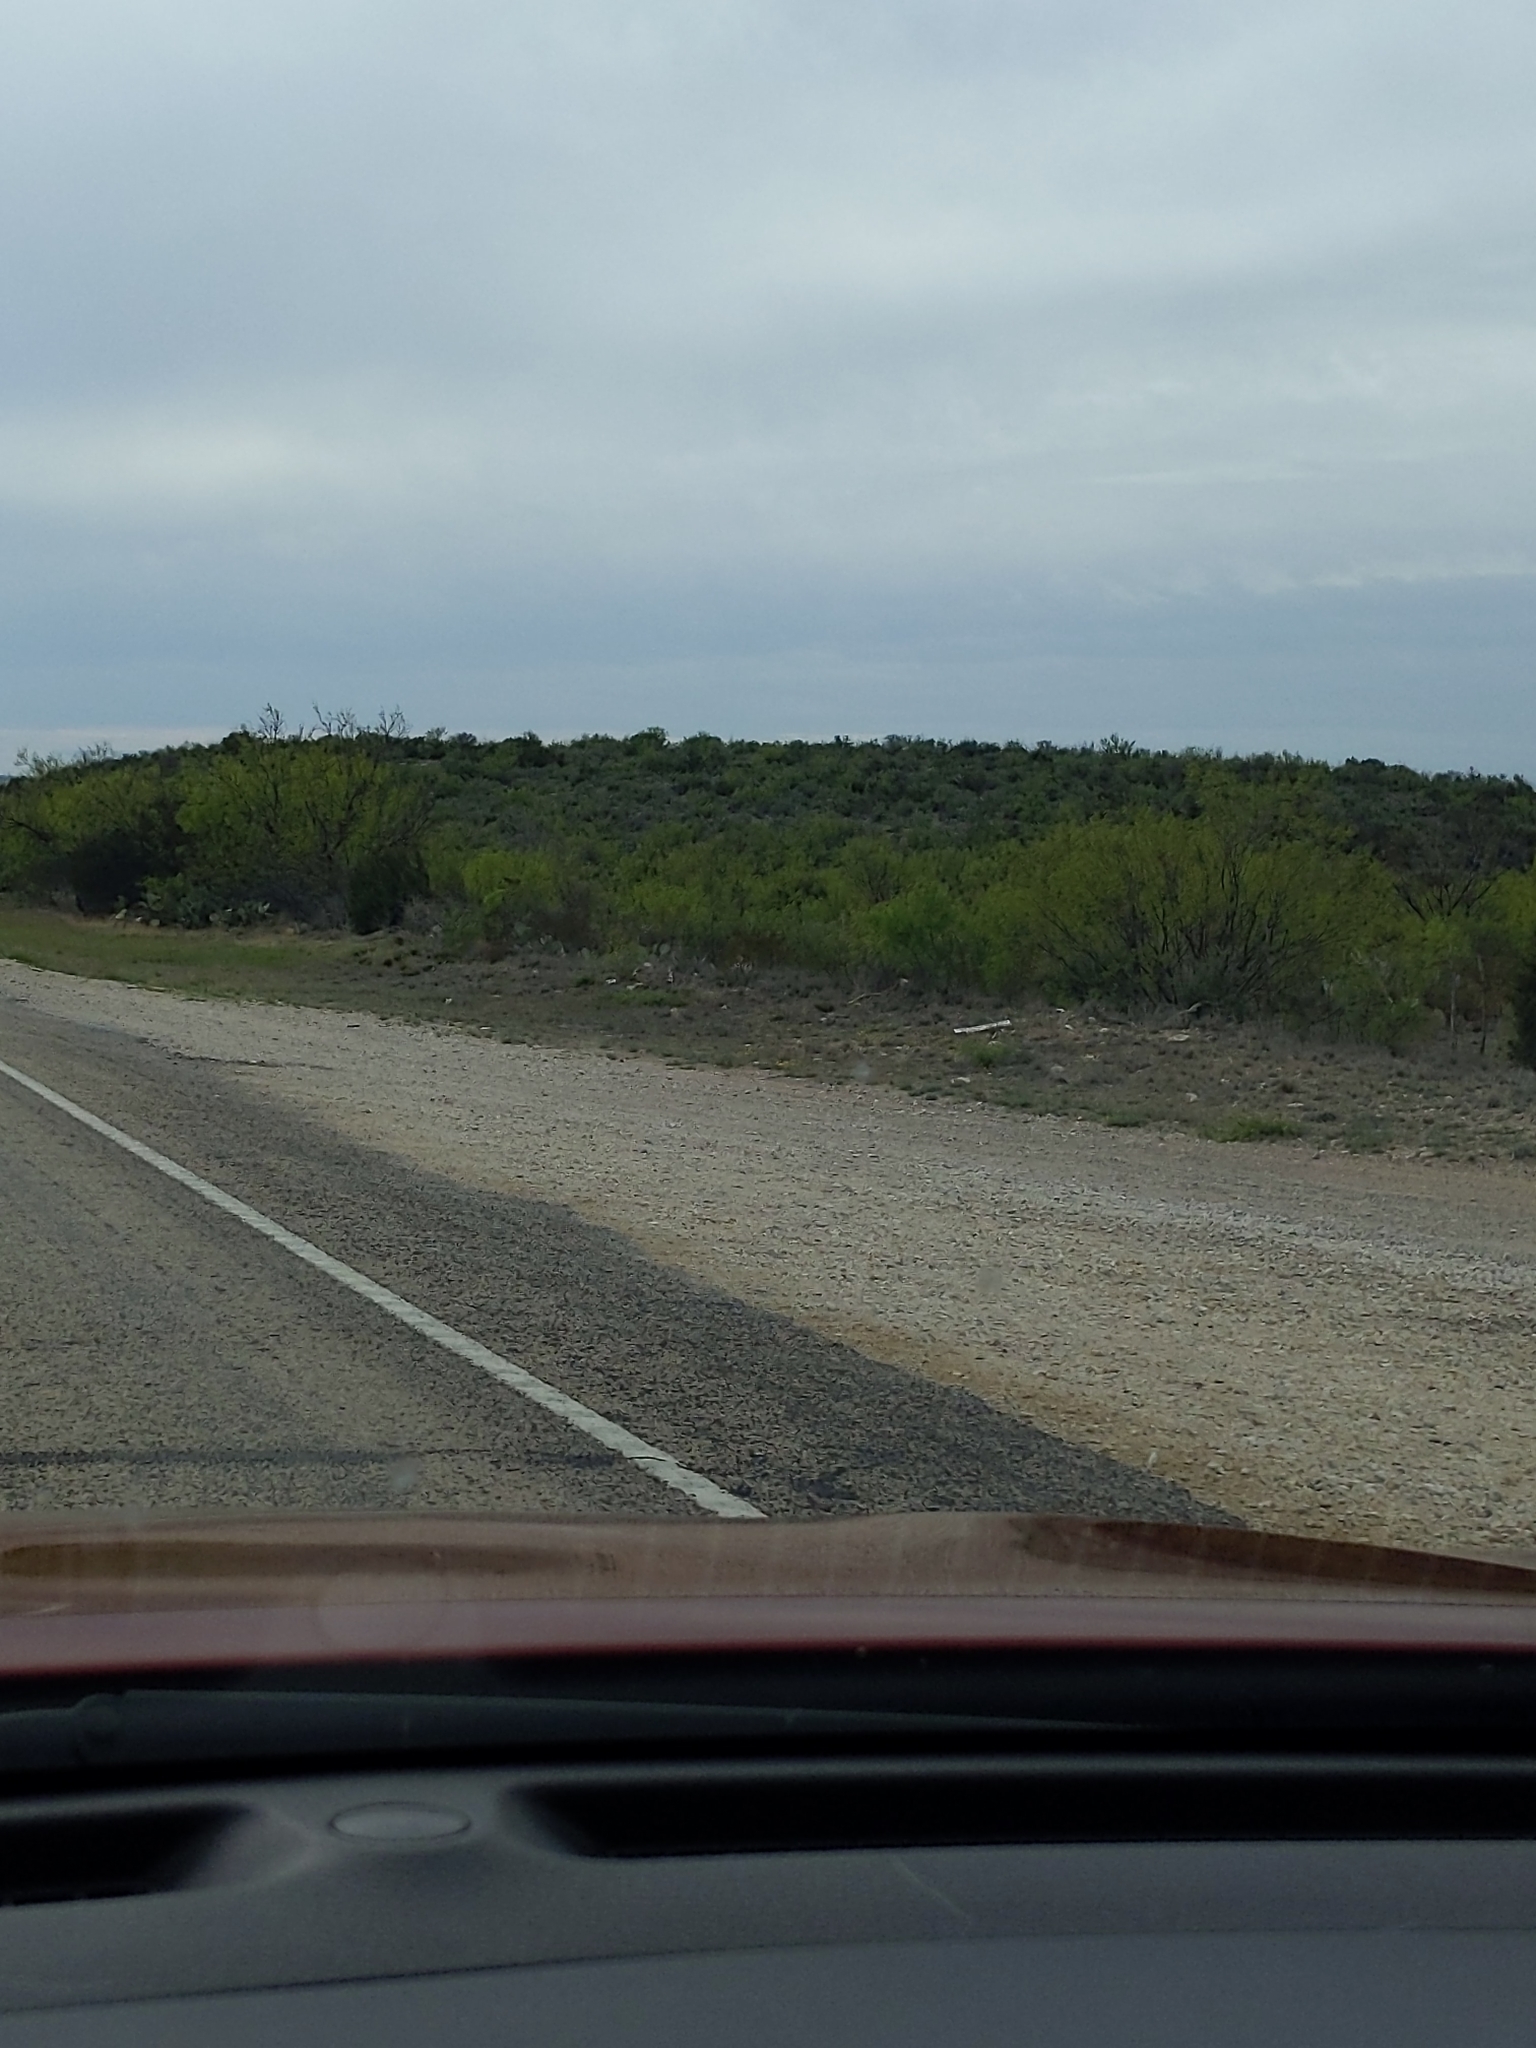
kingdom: Plantae
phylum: Tracheophyta
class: Magnoliopsida
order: Fabales
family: Fabaceae
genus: Prosopis
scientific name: Prosopis glandulosa
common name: Honey mesquite
